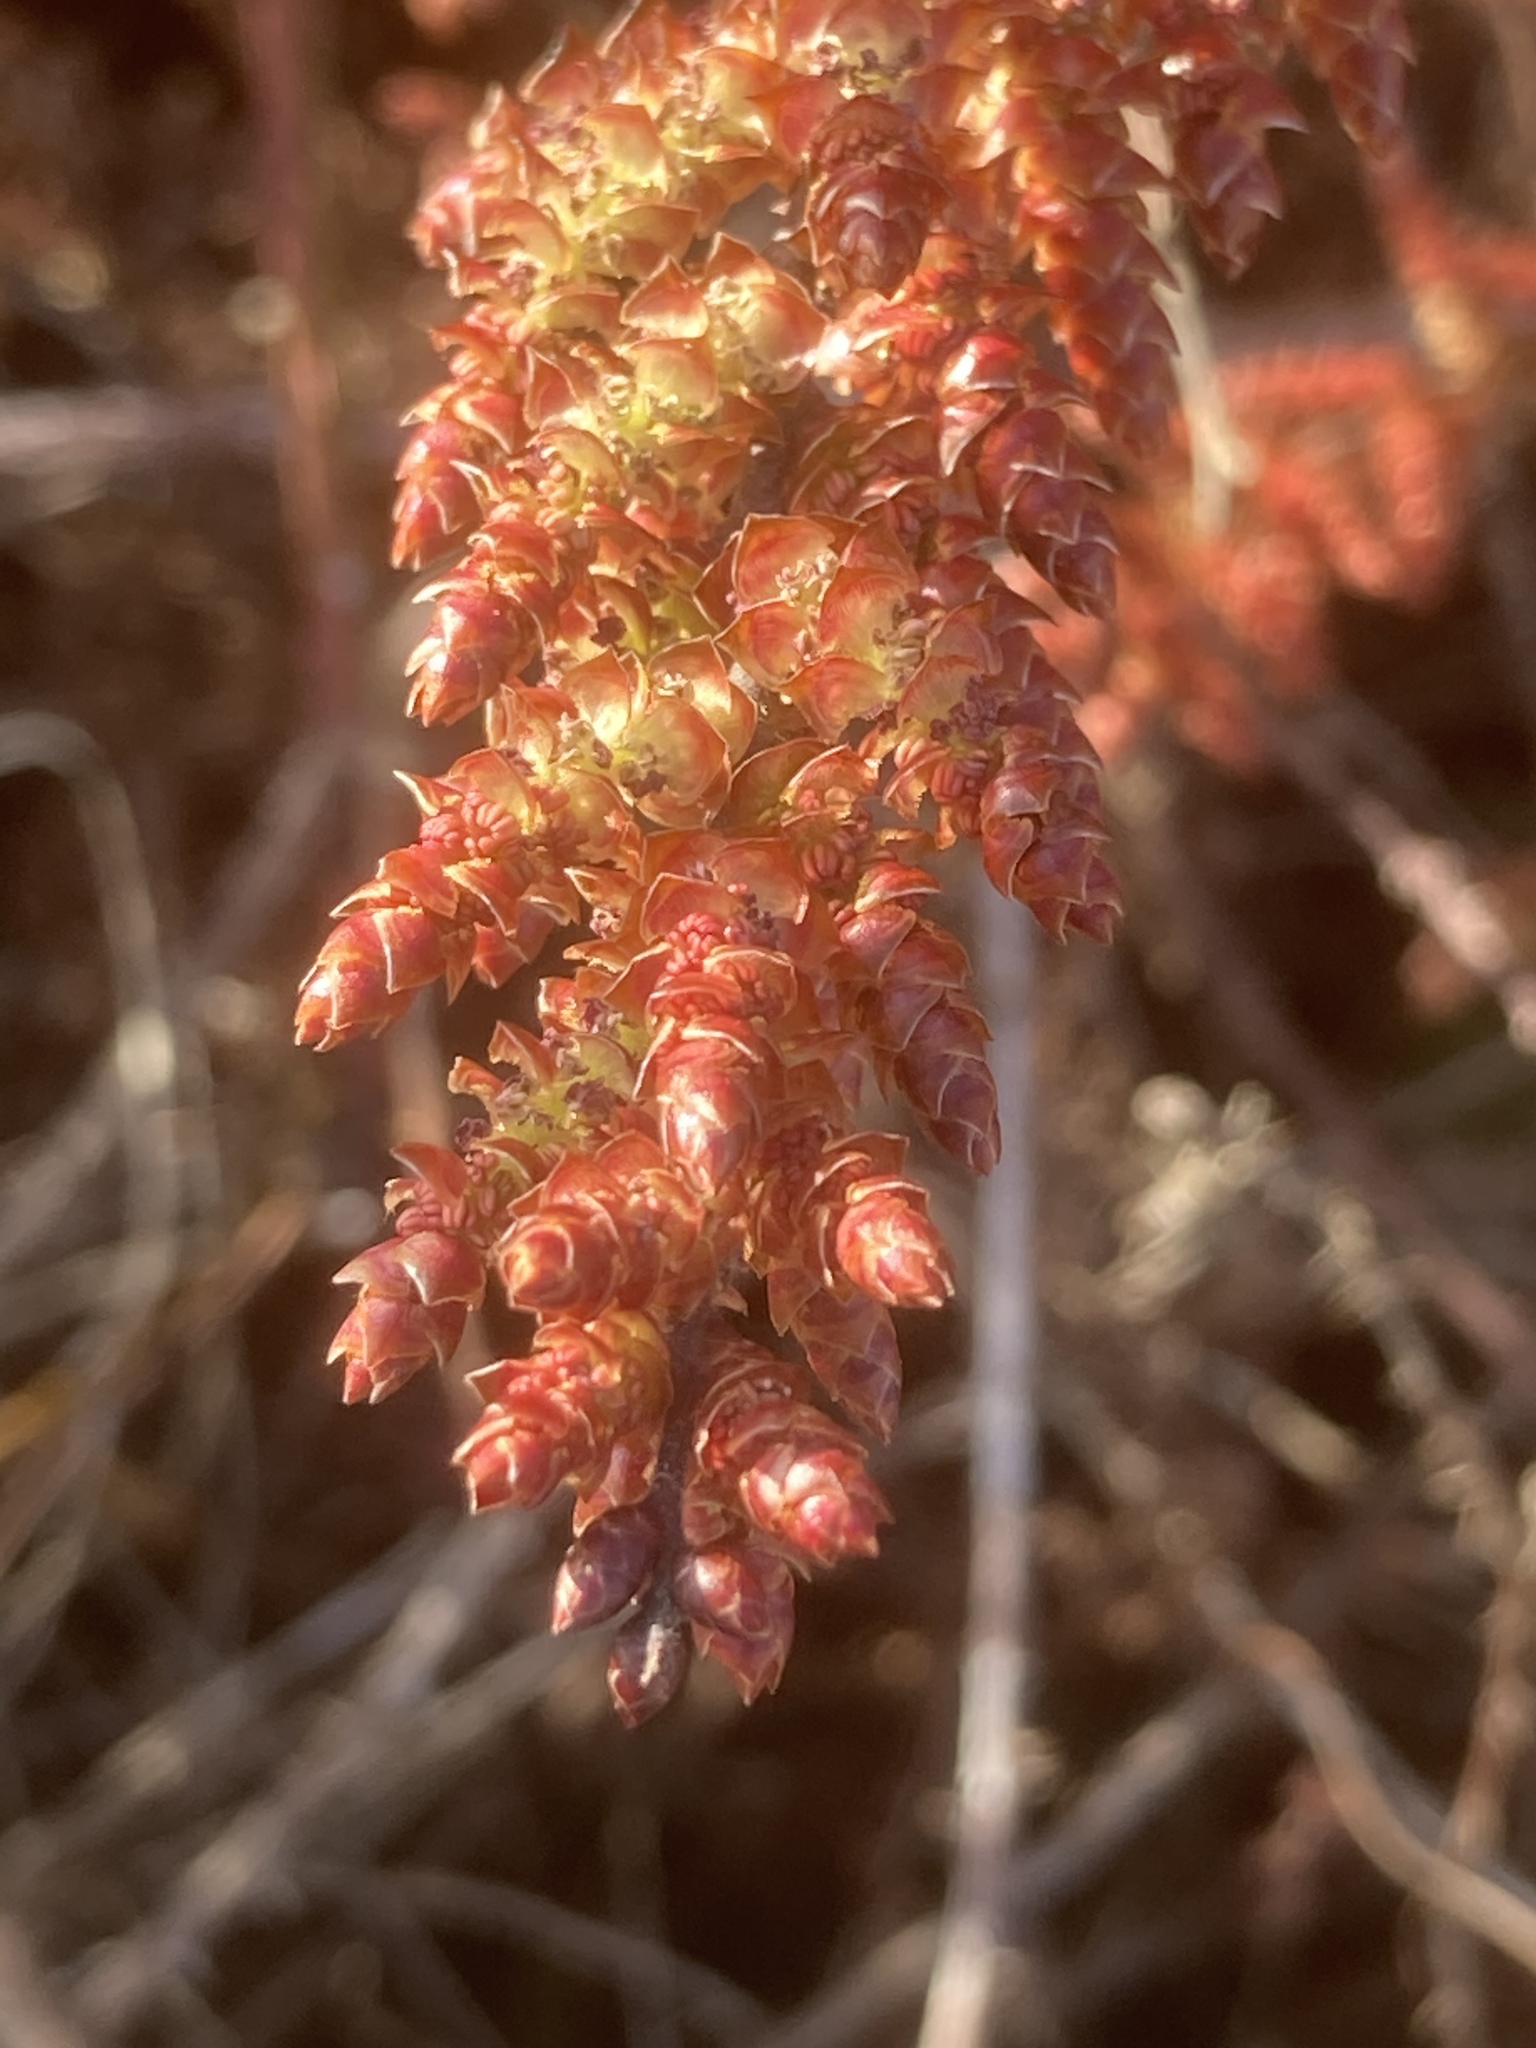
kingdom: Plantae
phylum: Tracheophyta
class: Magnoliopsida
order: Fagales
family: Myricaceae
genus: Myrica
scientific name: Myrica gale
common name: Sweet gale
